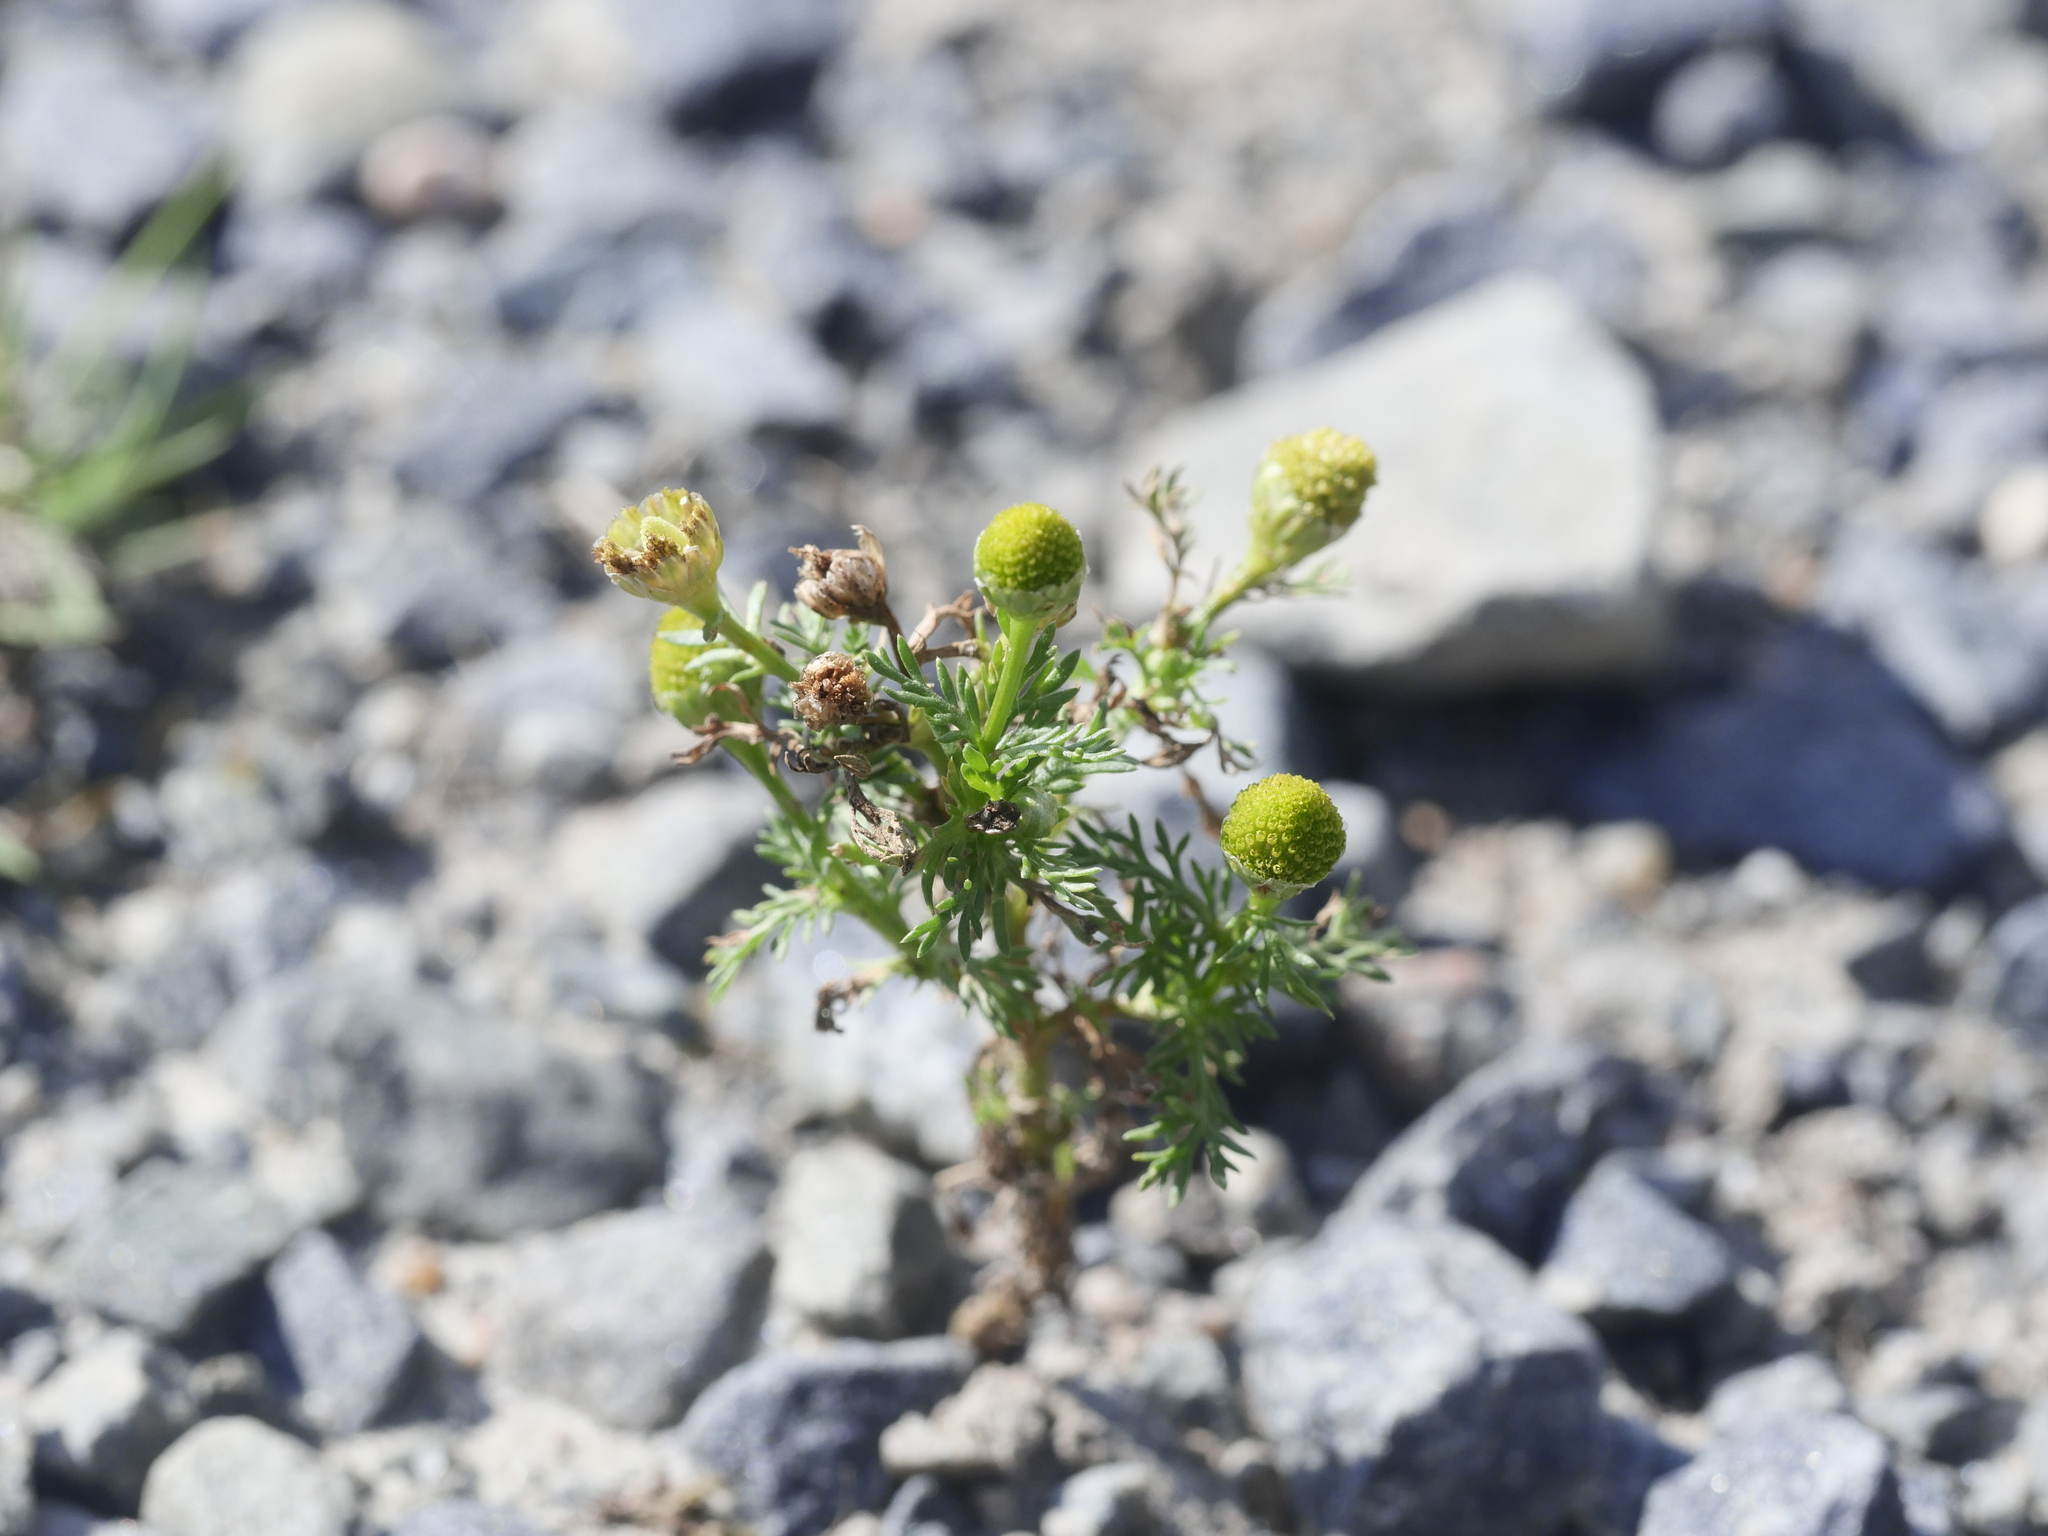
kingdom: Plantae
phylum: Tracheophyta
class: Magnoliopsida
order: Asterales
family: Asteraceae
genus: Matricaria
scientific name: Matricaria discoidea
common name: Disc mayweed
